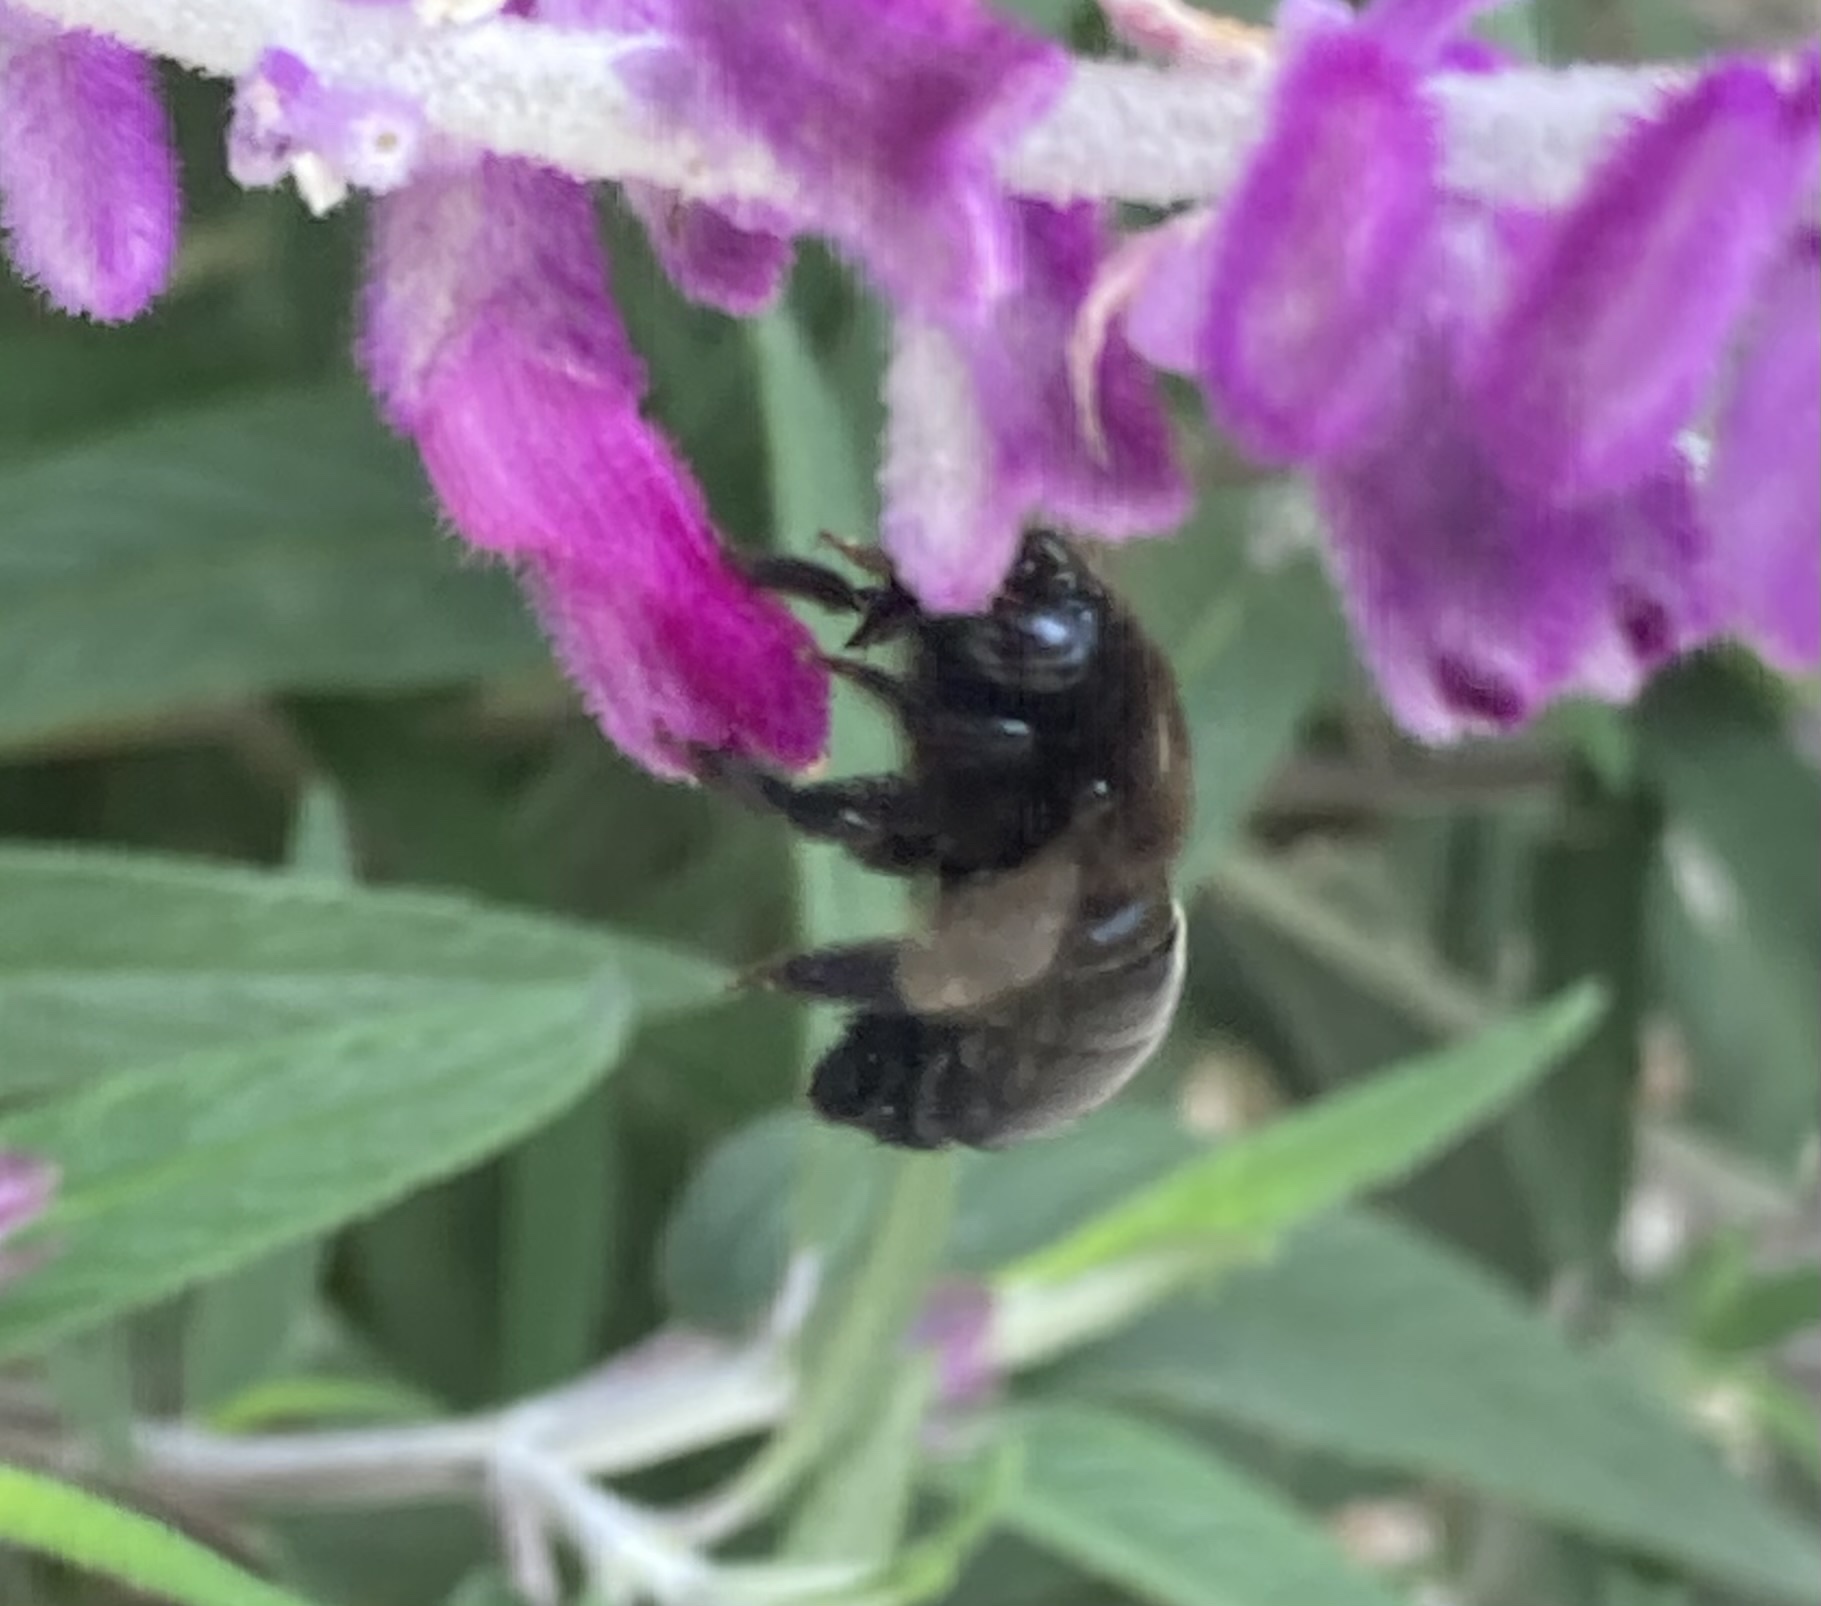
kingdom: Animalia
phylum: Arthropoda
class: Insecta
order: Hymenoptera
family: Apidae
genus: Xylocopa
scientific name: Xylocopa tabaniformis
